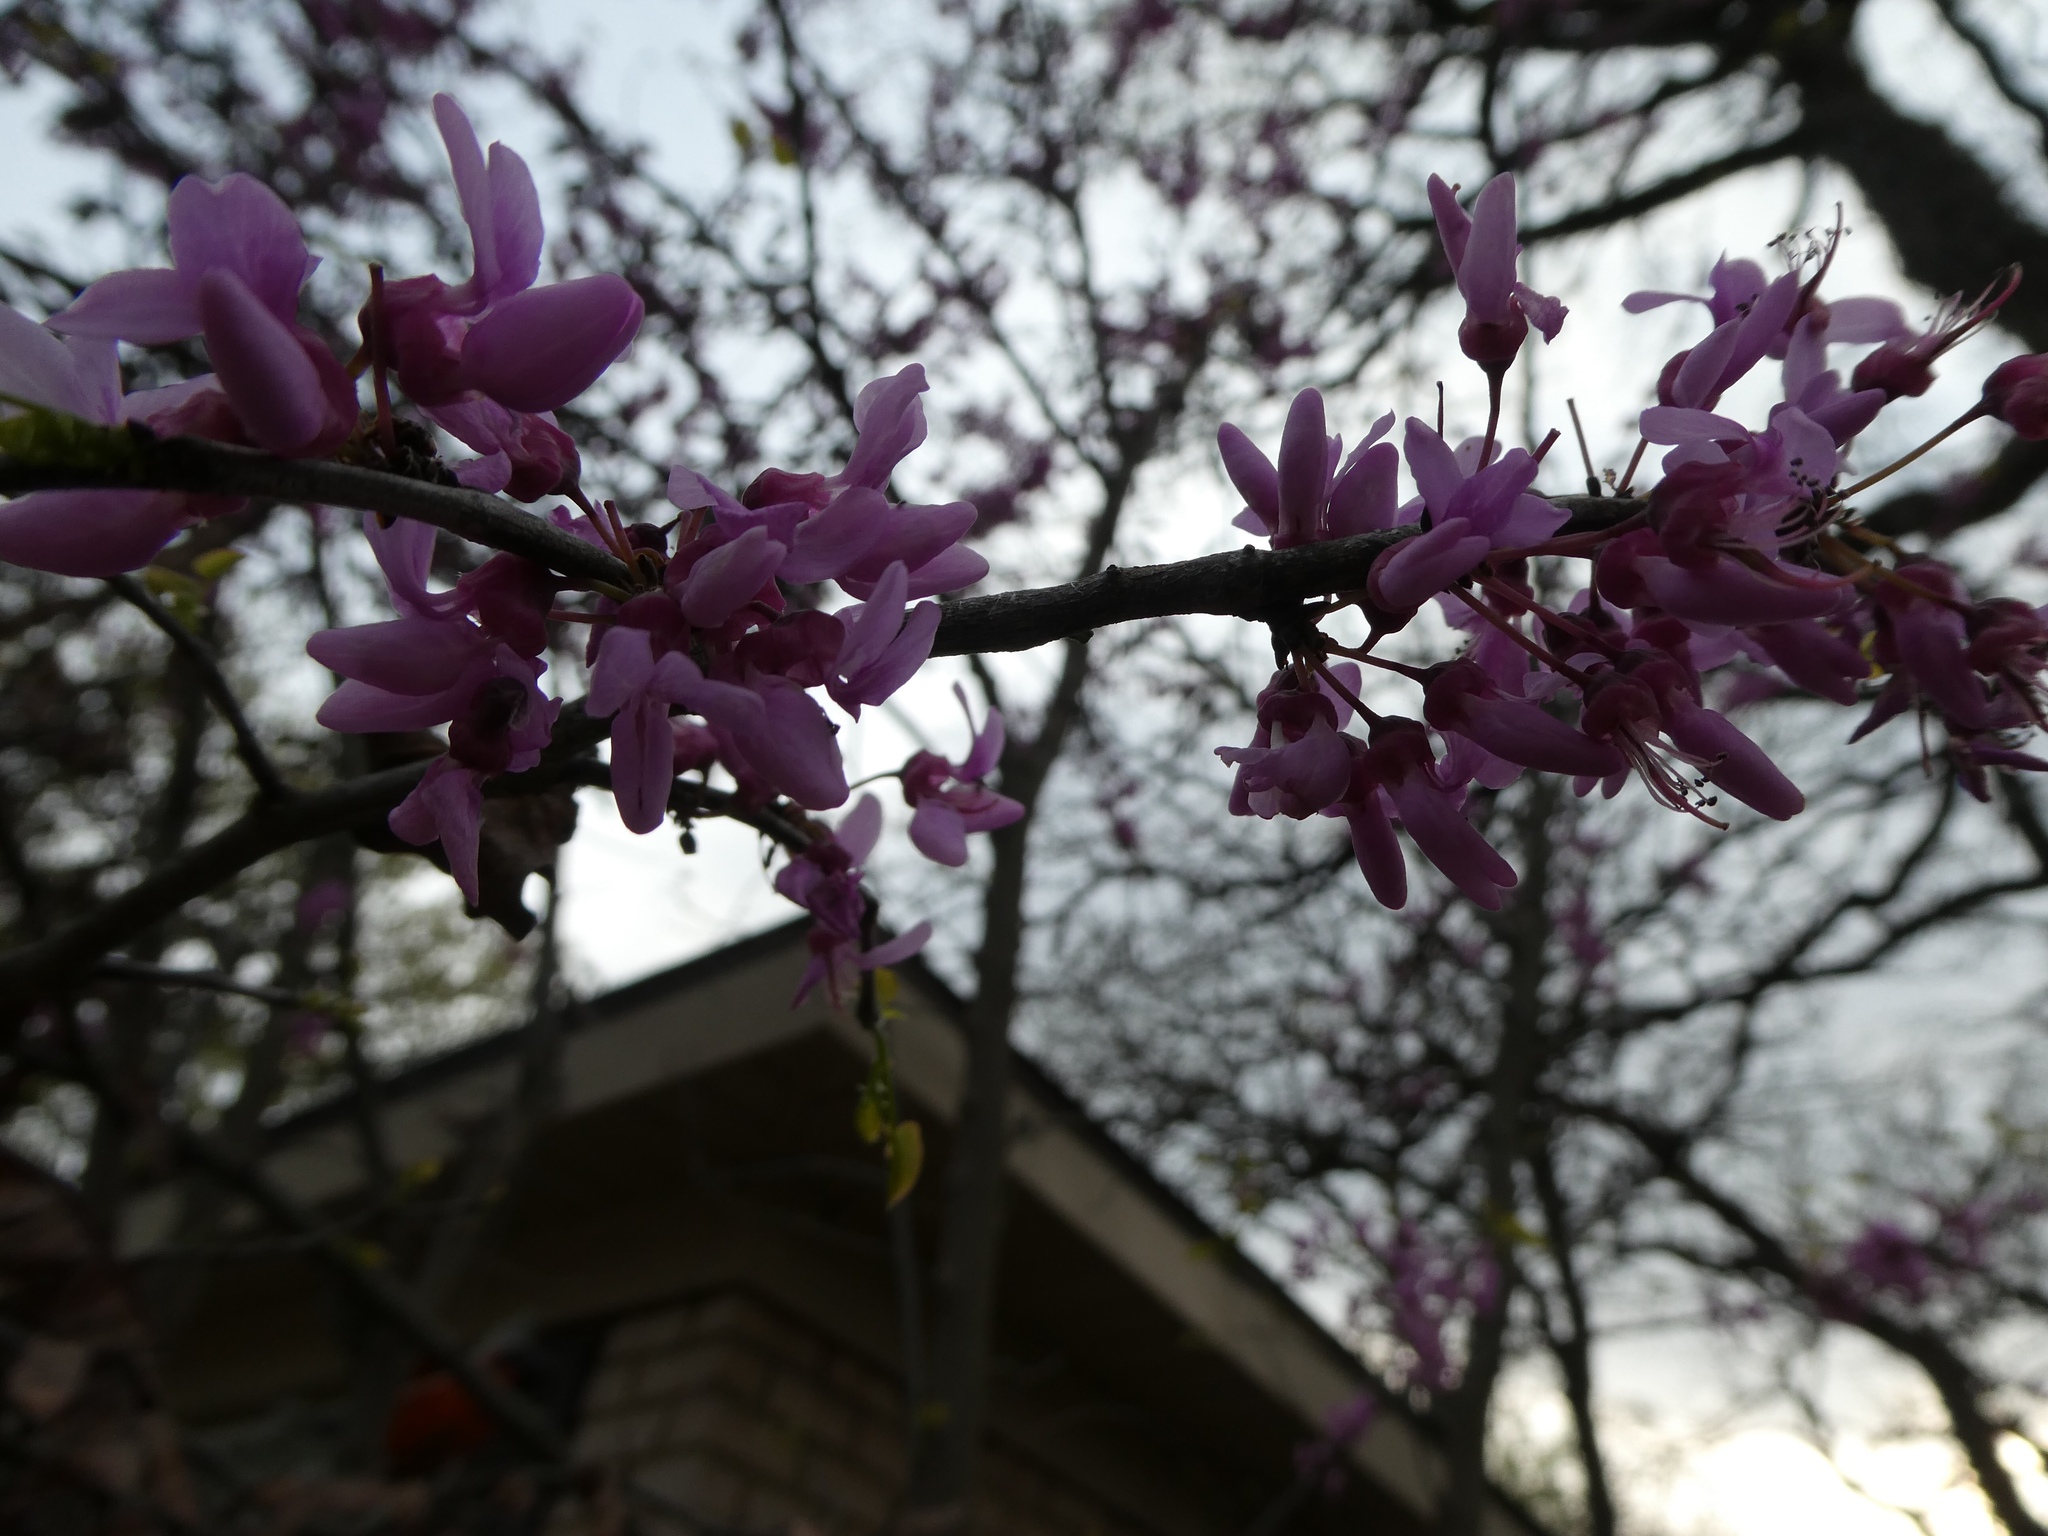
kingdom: Plantae
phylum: Tracheophyta
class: Magnoliopsida
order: Fabales
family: Fabaceae
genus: Cercis
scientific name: Cercis canadensis
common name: Eastern redbud
